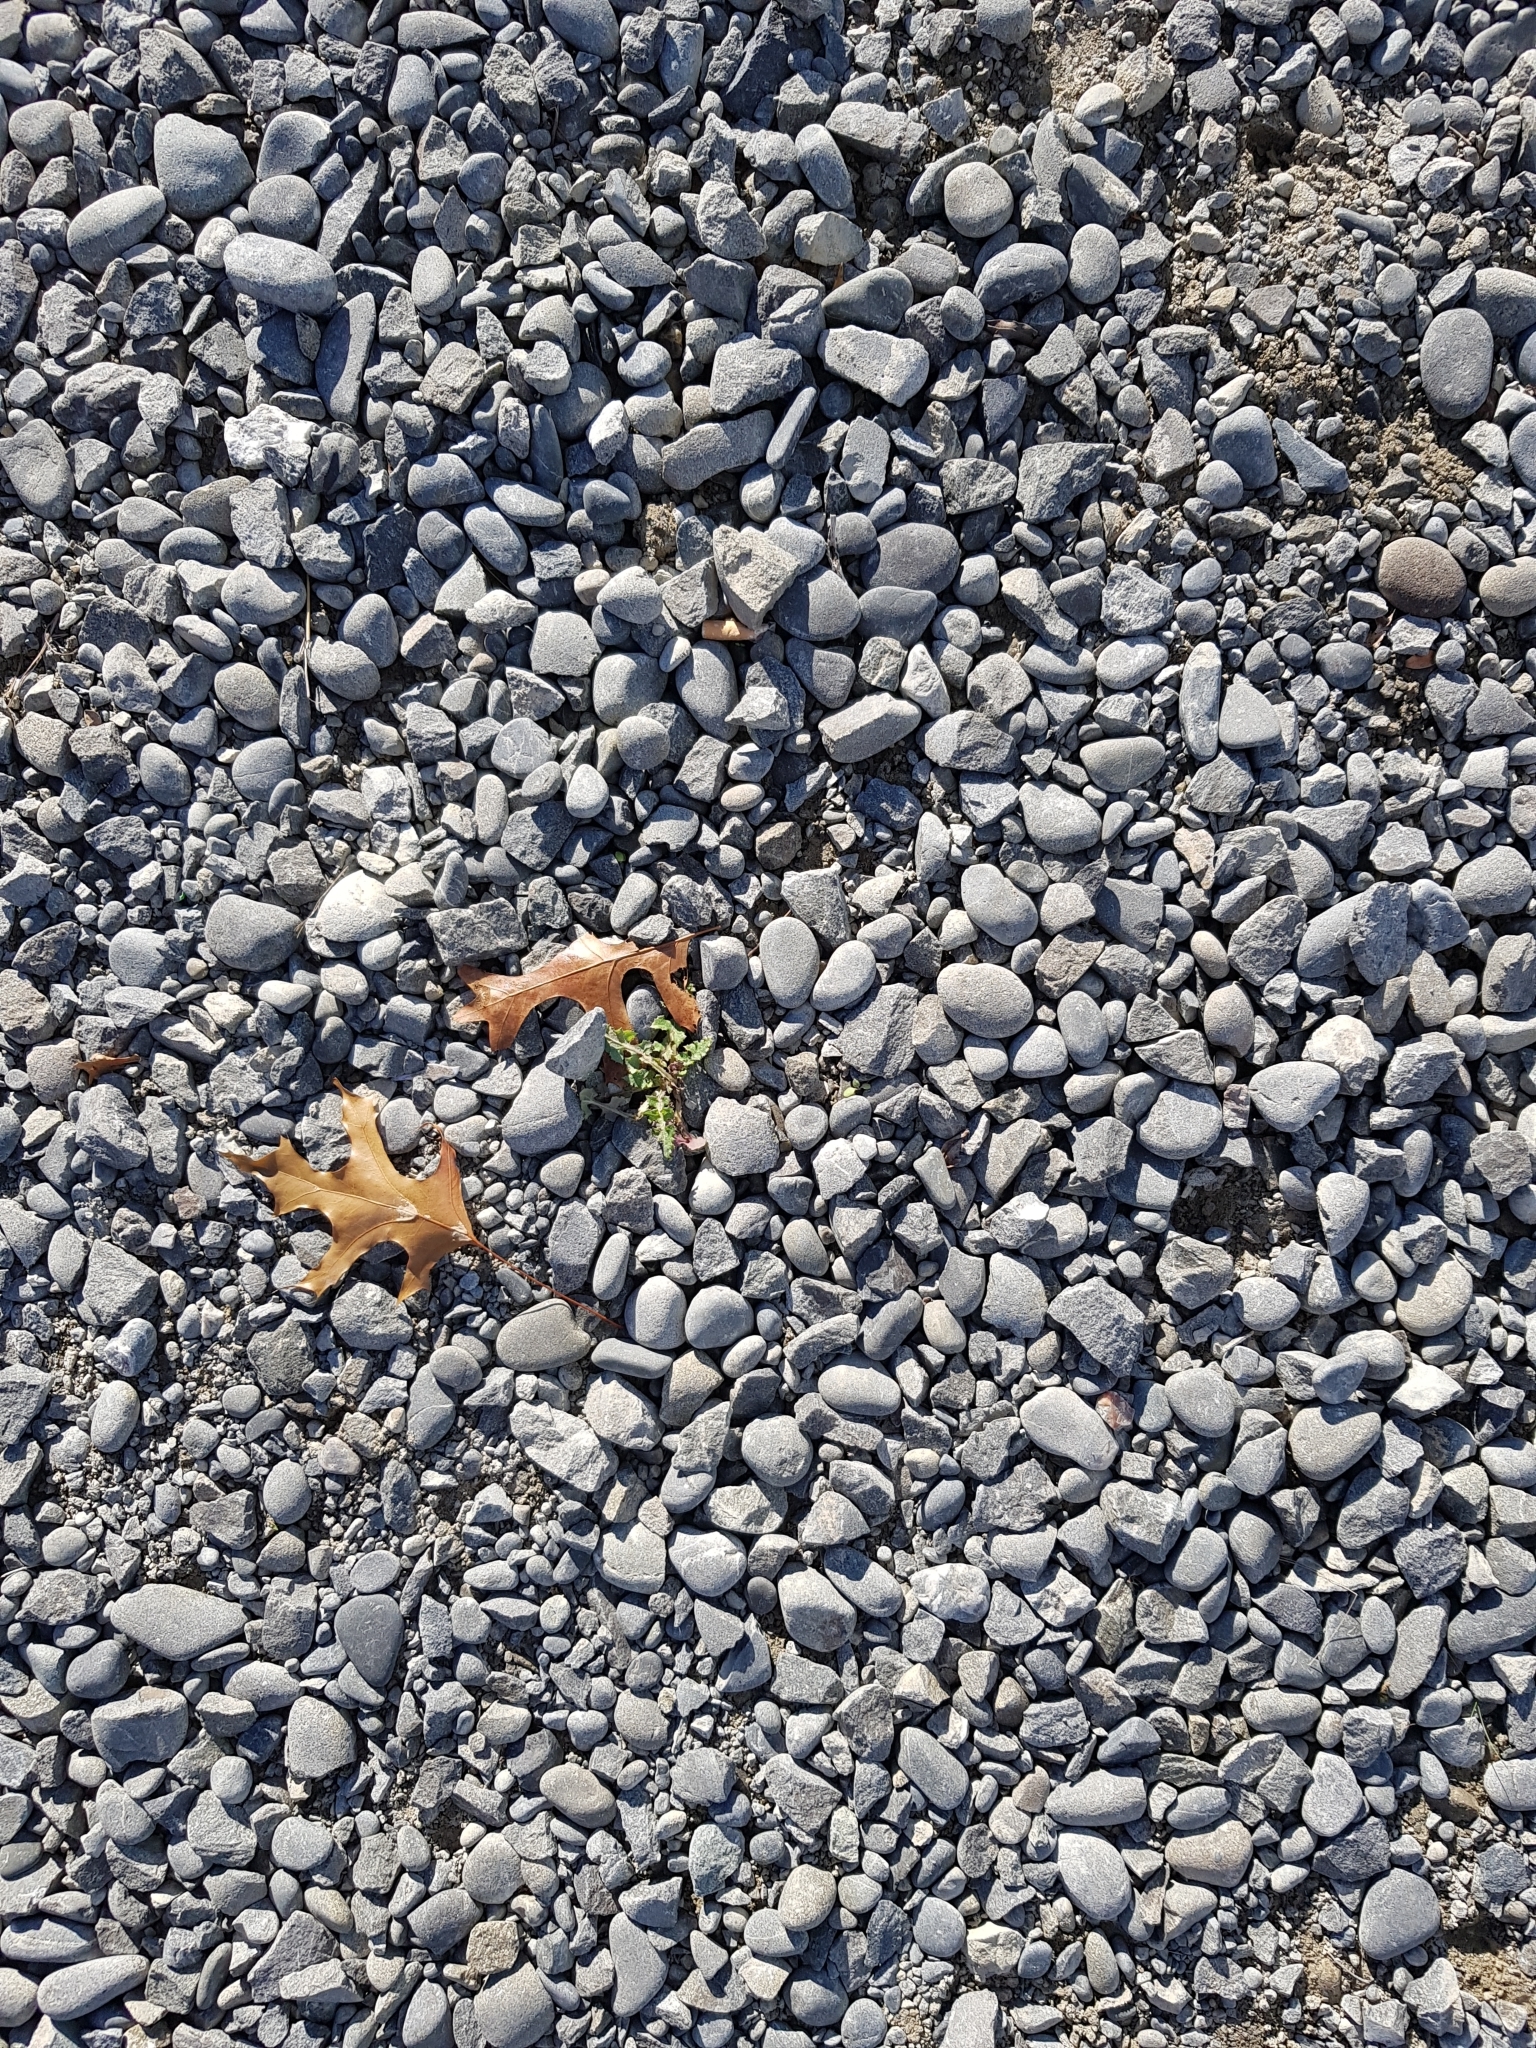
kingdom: Plantae
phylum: Tracheophyta
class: Magnoliopsida
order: Asterales
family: Asteraceae
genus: Sonchus
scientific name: Sonchus oleraceus
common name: Common sowthistle
